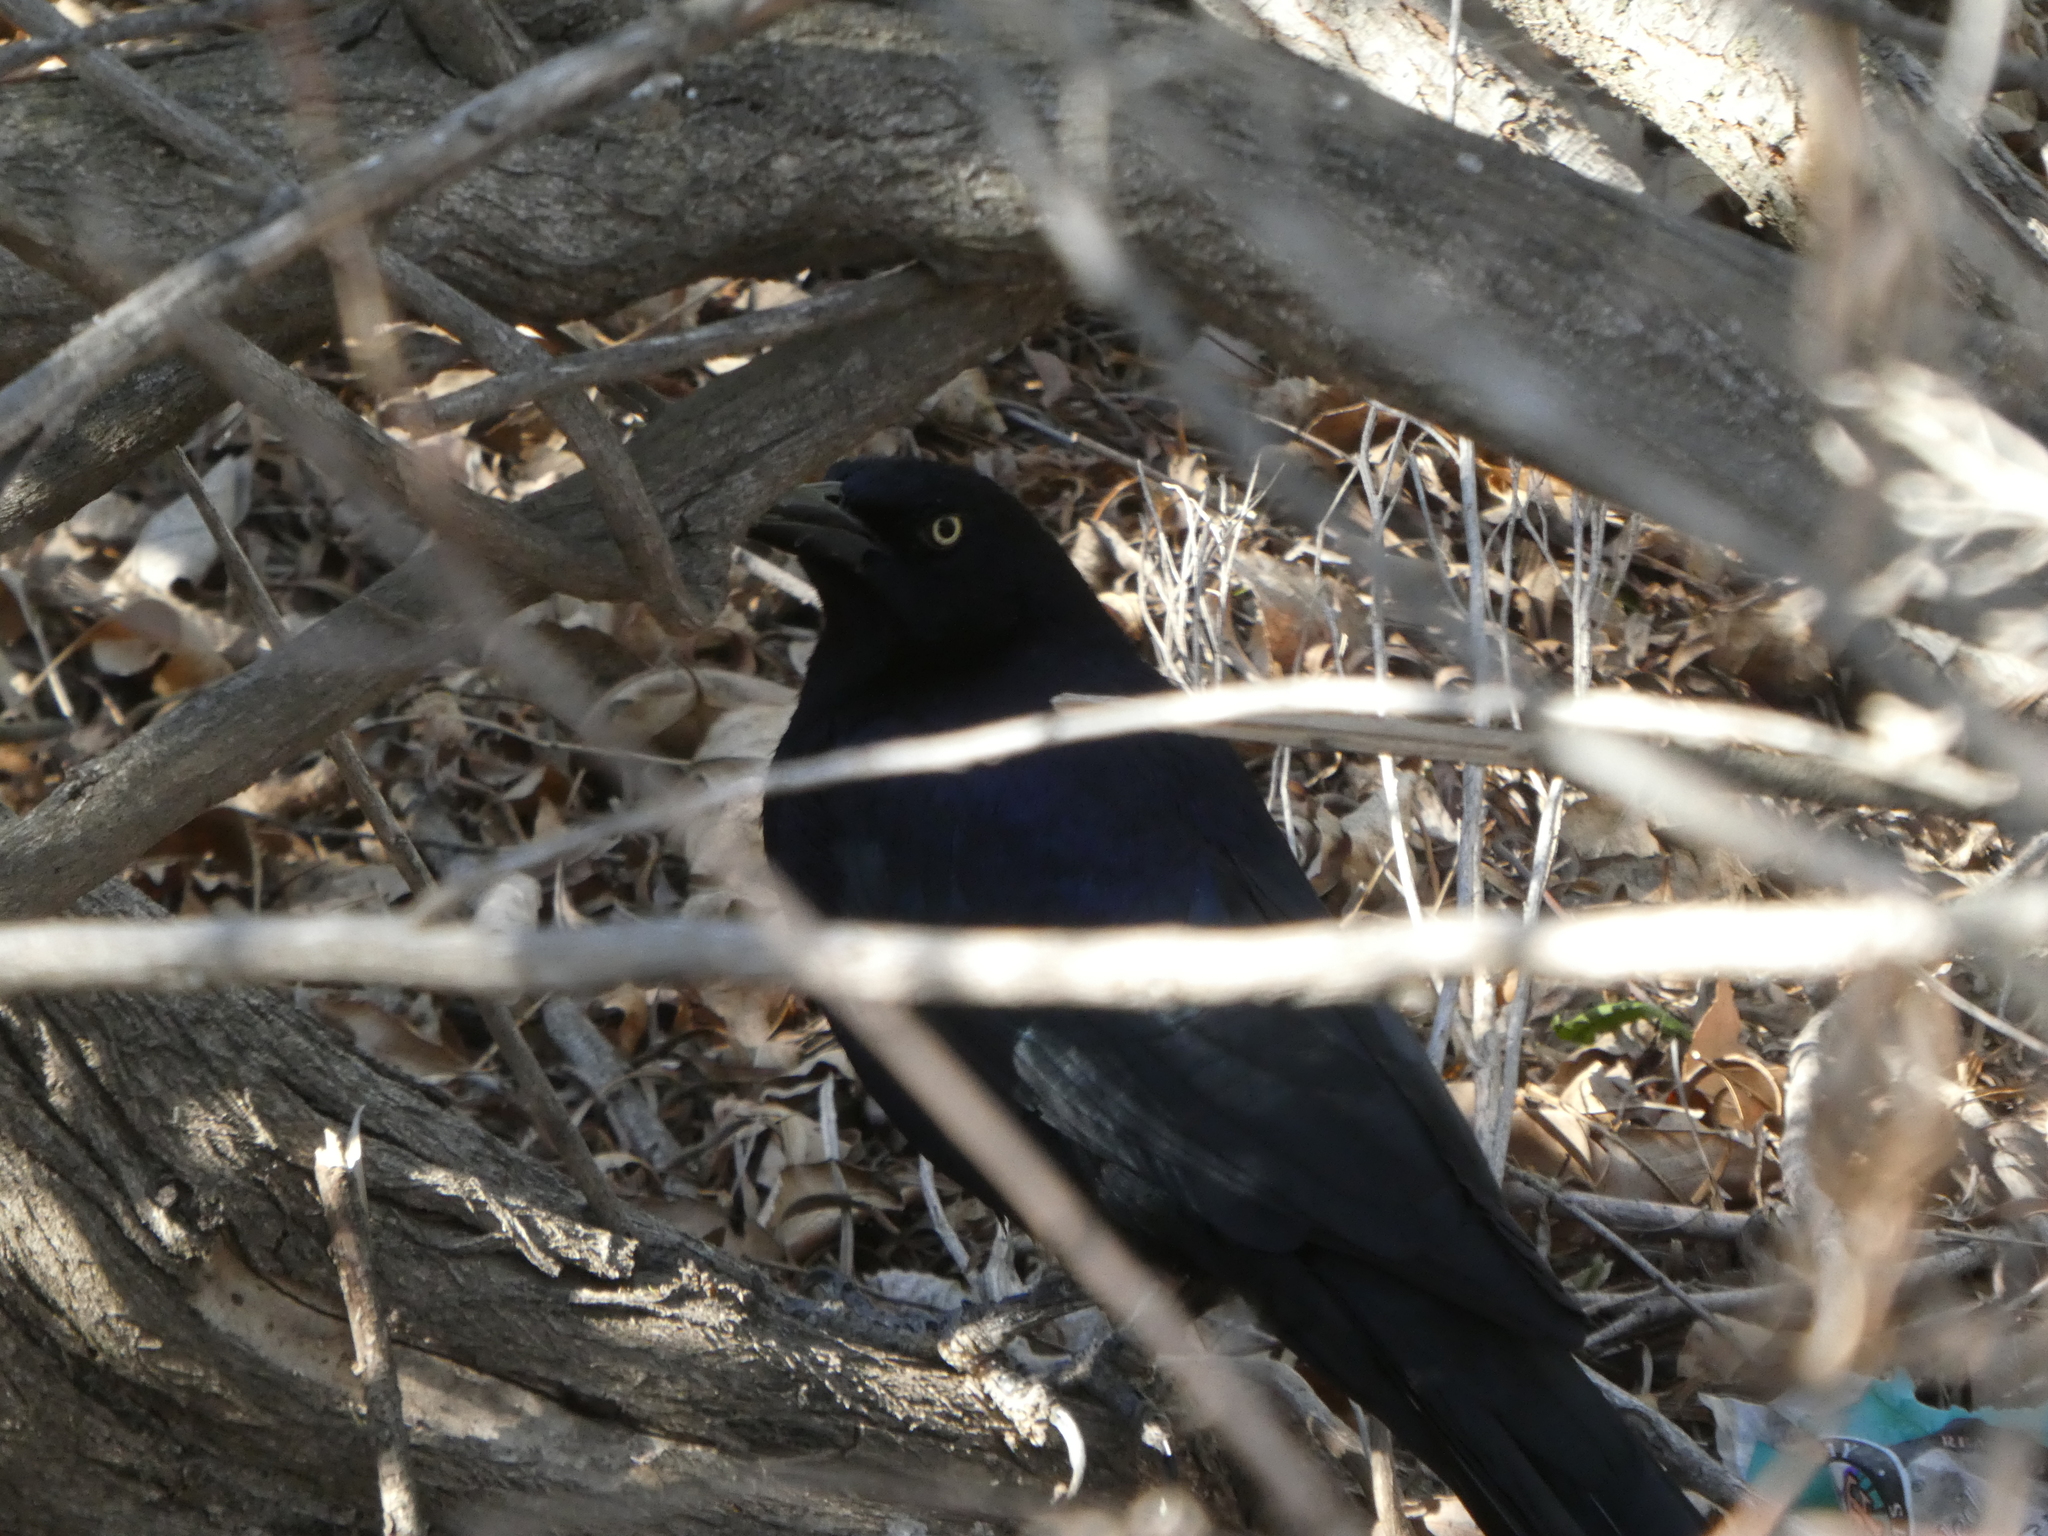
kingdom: Animalia
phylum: Chordata
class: Aves
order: Passeriformes
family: Icteridae
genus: Quiscalus
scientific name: Quiscalus mexicanus
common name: Great-tailed grackle
